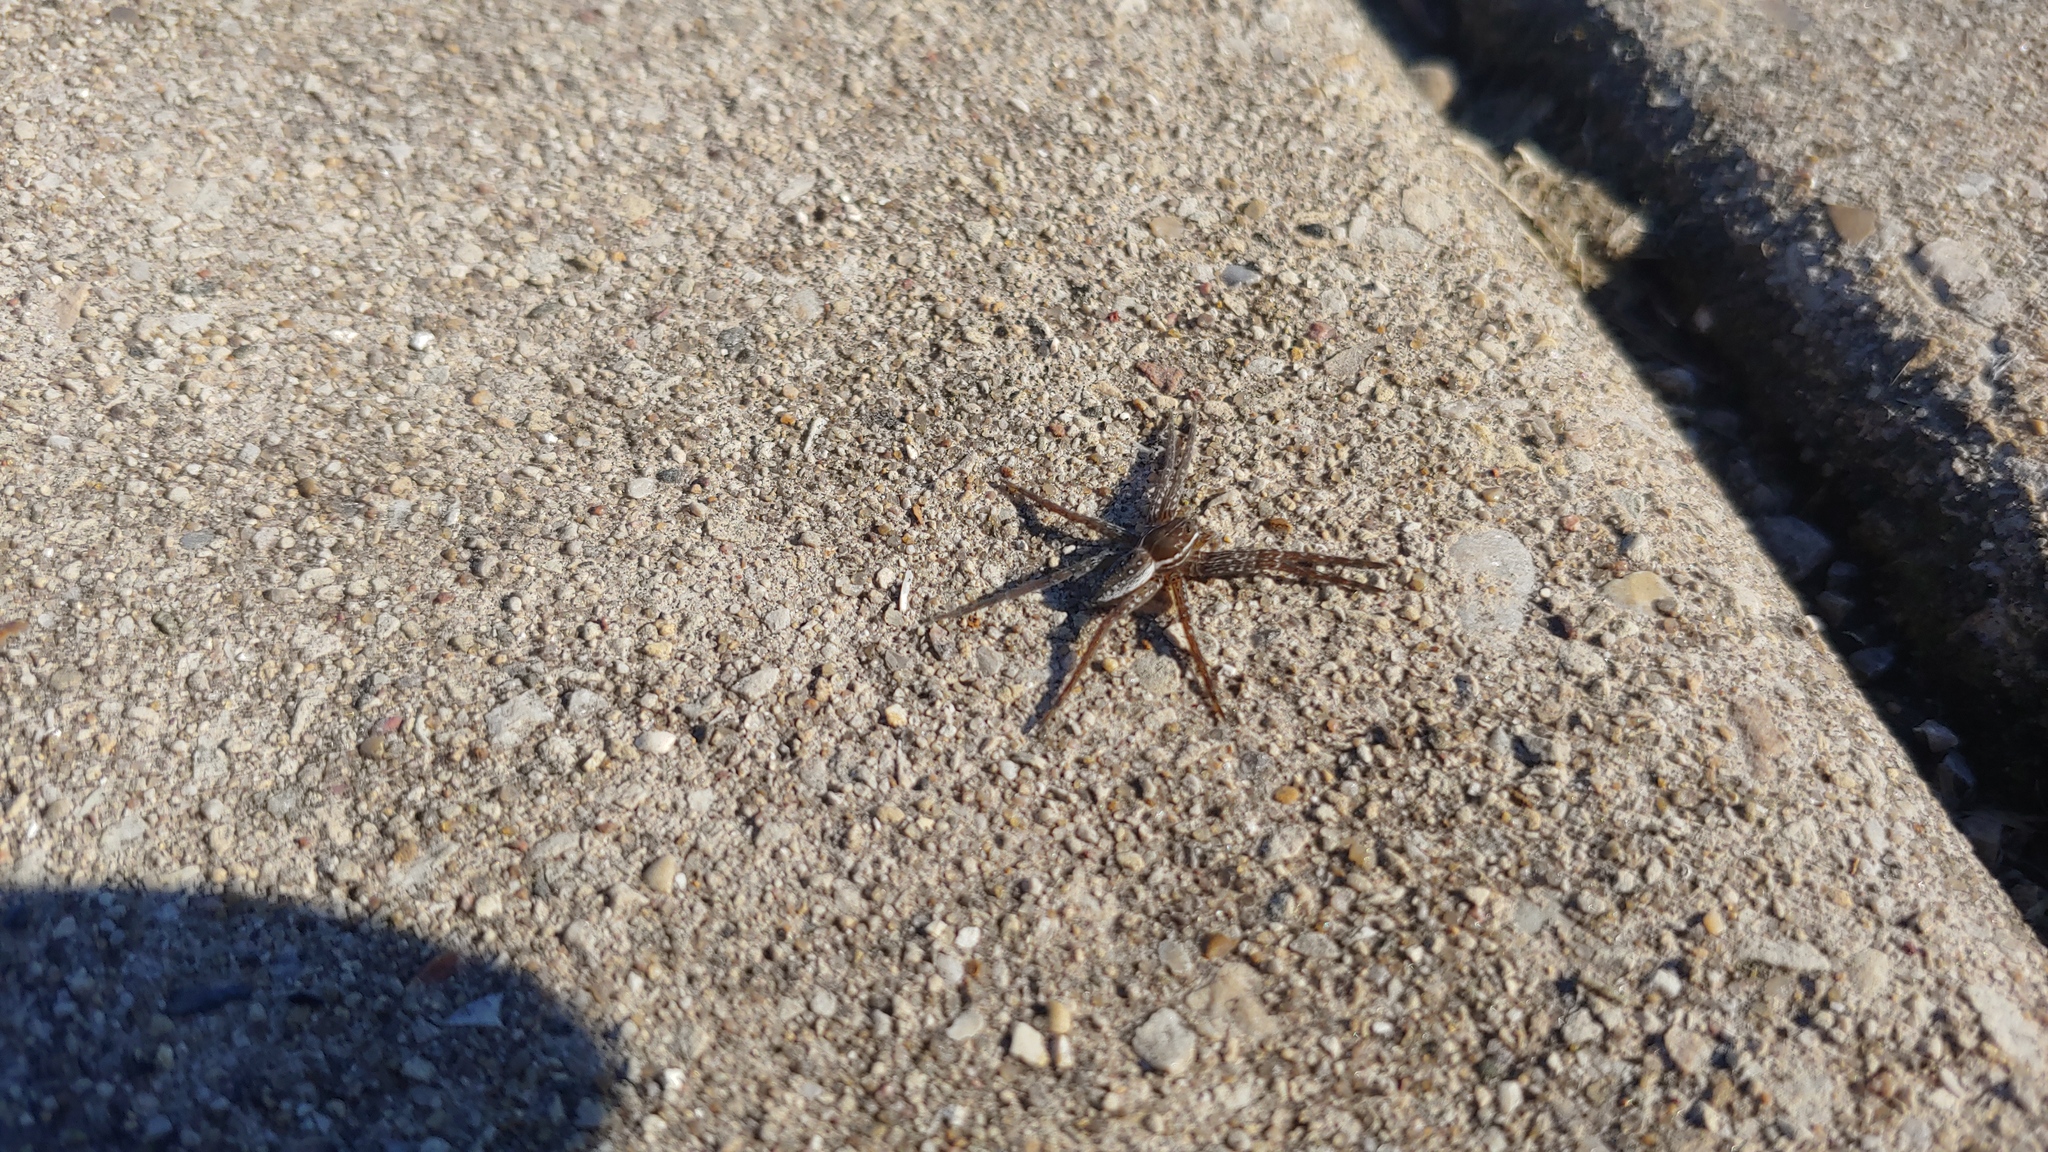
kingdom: Animalia
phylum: Arthropoda
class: Arachnida
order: Araneae
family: Pisauridae
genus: Dolomedes
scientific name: Dolomedes triton
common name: Six-spotted fishing spider
